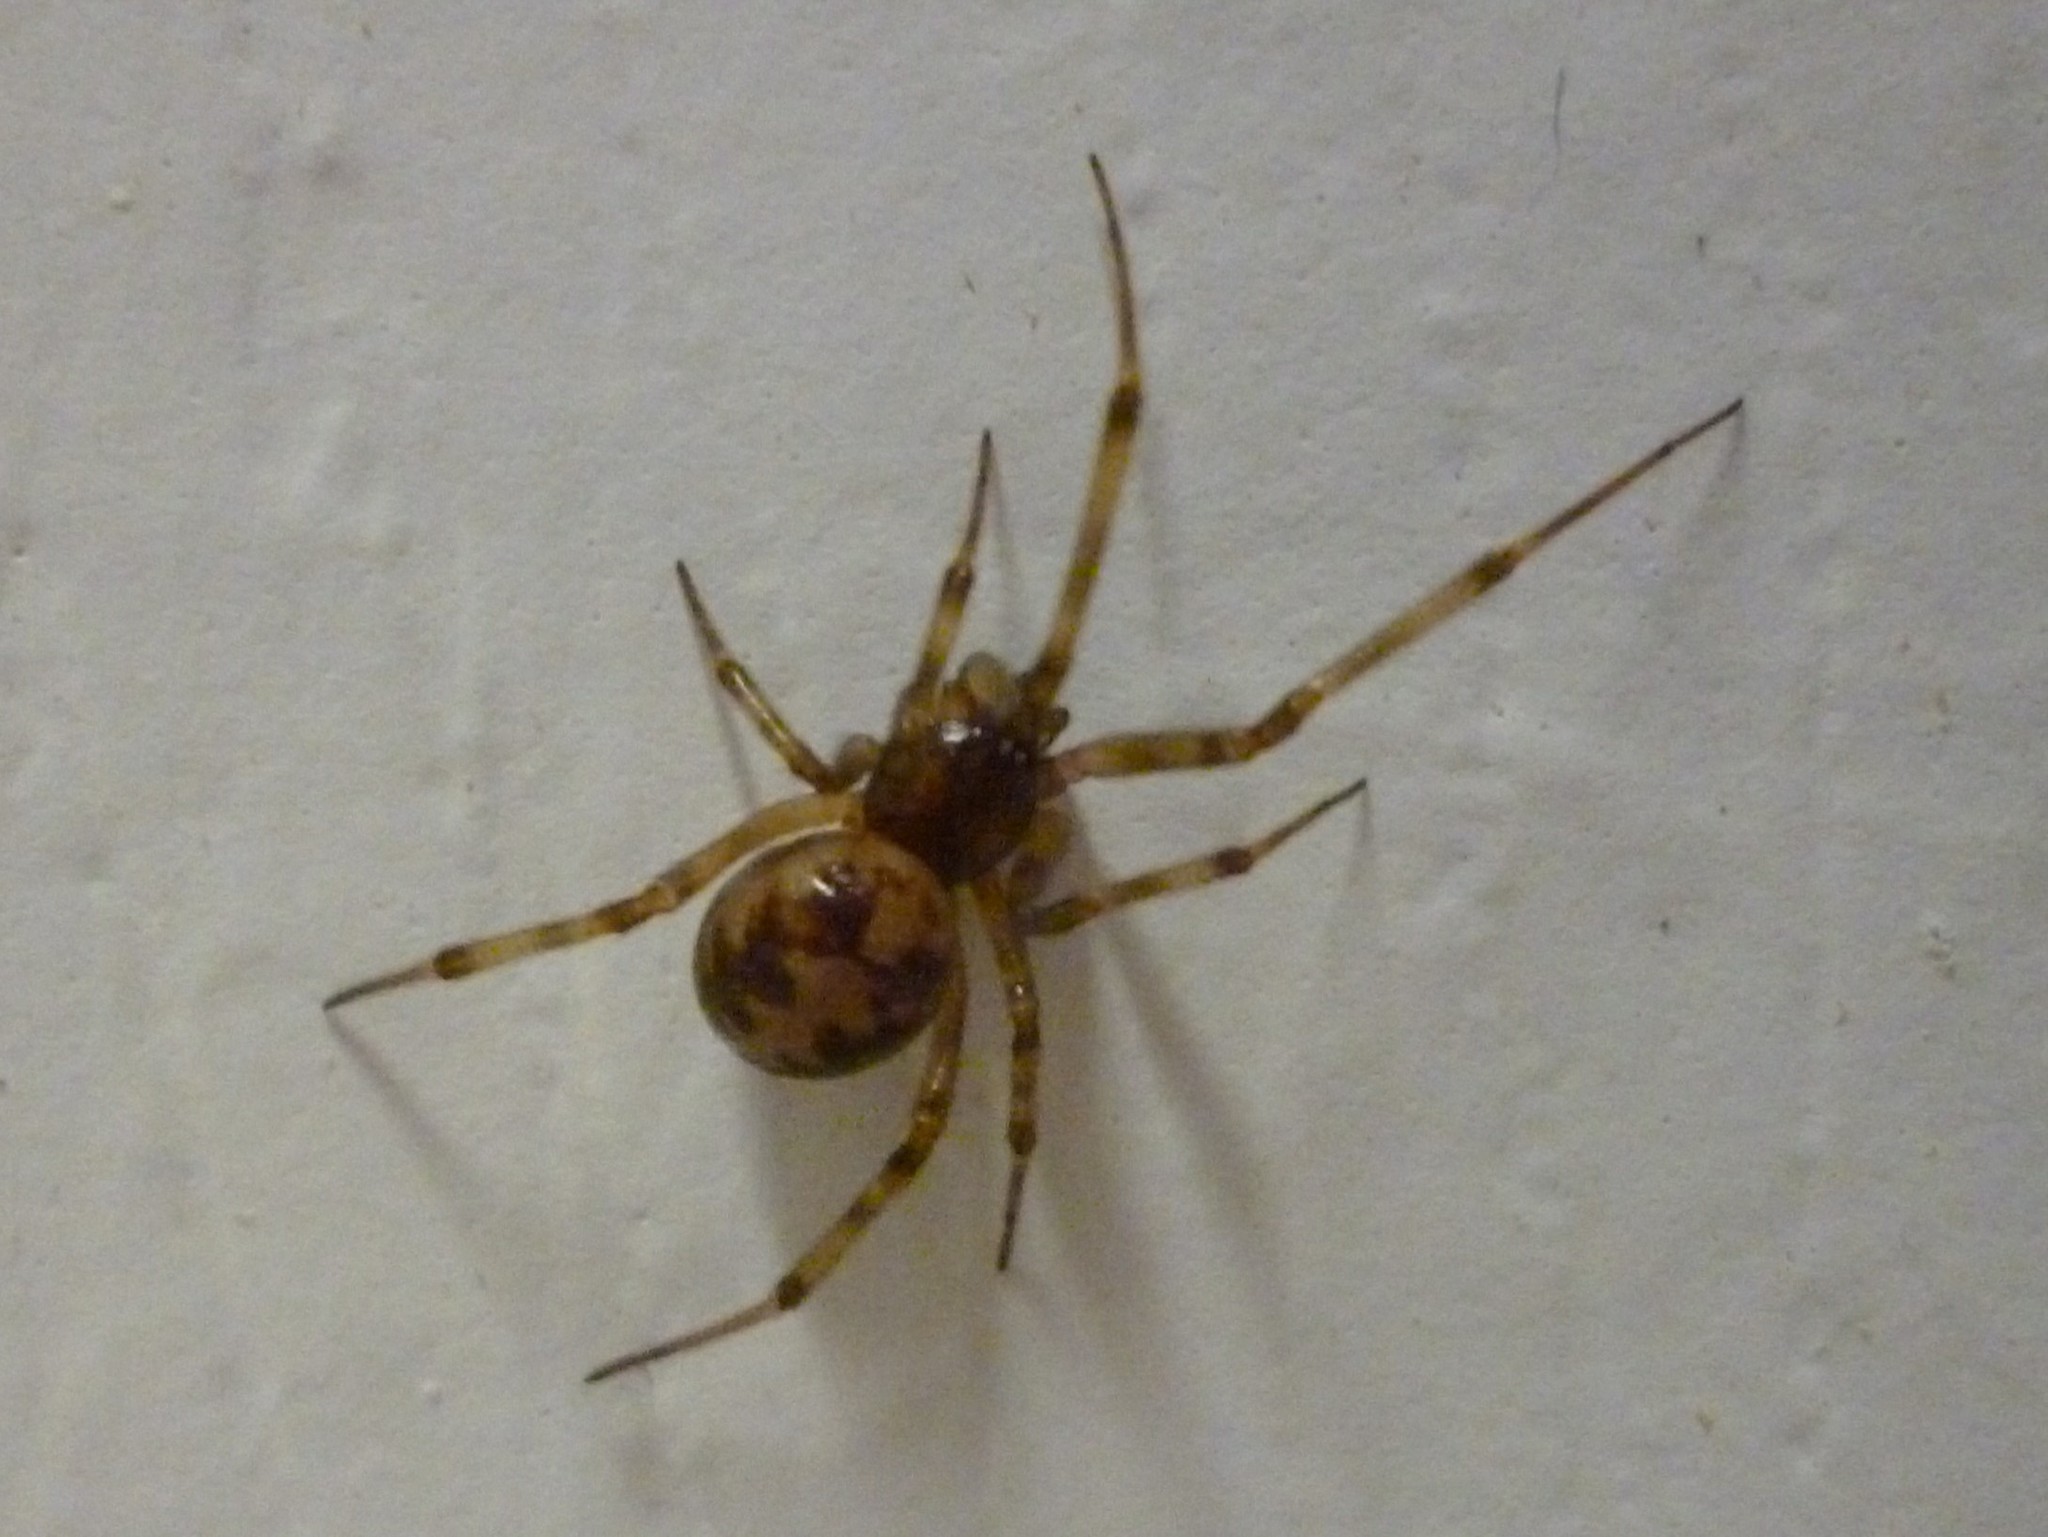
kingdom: Animalia
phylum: Arthropoda
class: Arachnida
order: Araneae
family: Theridiidae
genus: Steatoda
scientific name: Steatoda triangulosa
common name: Triangulate bud spider
